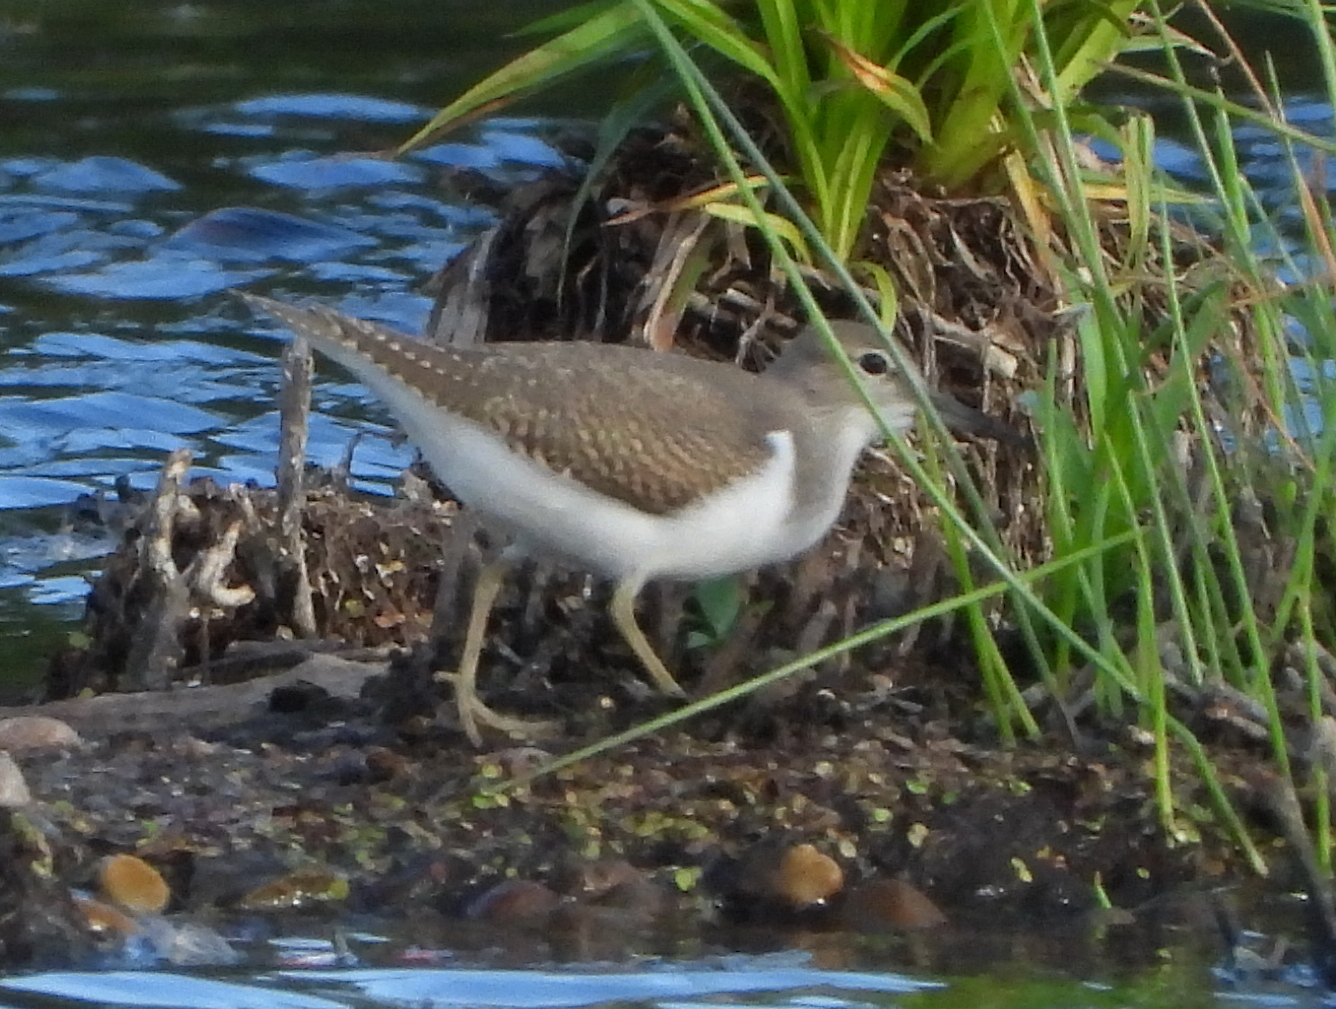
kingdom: Animalia
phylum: Chordata
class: Aves
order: Charadriiformes
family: Scolopacidae
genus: Actitis
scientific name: Actitis hypoleucos
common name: Common sandpiper
